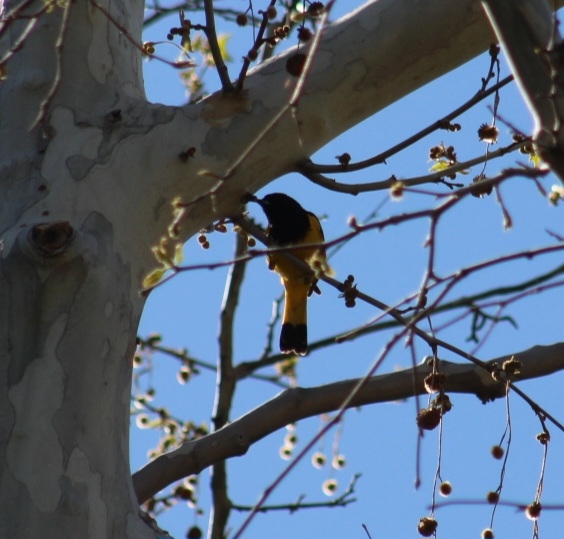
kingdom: Animalia
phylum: Chordata
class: Aves
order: Passeriformes
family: Icteridae
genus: Icterus
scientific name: Icterus parisorum
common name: Scott's oriole
